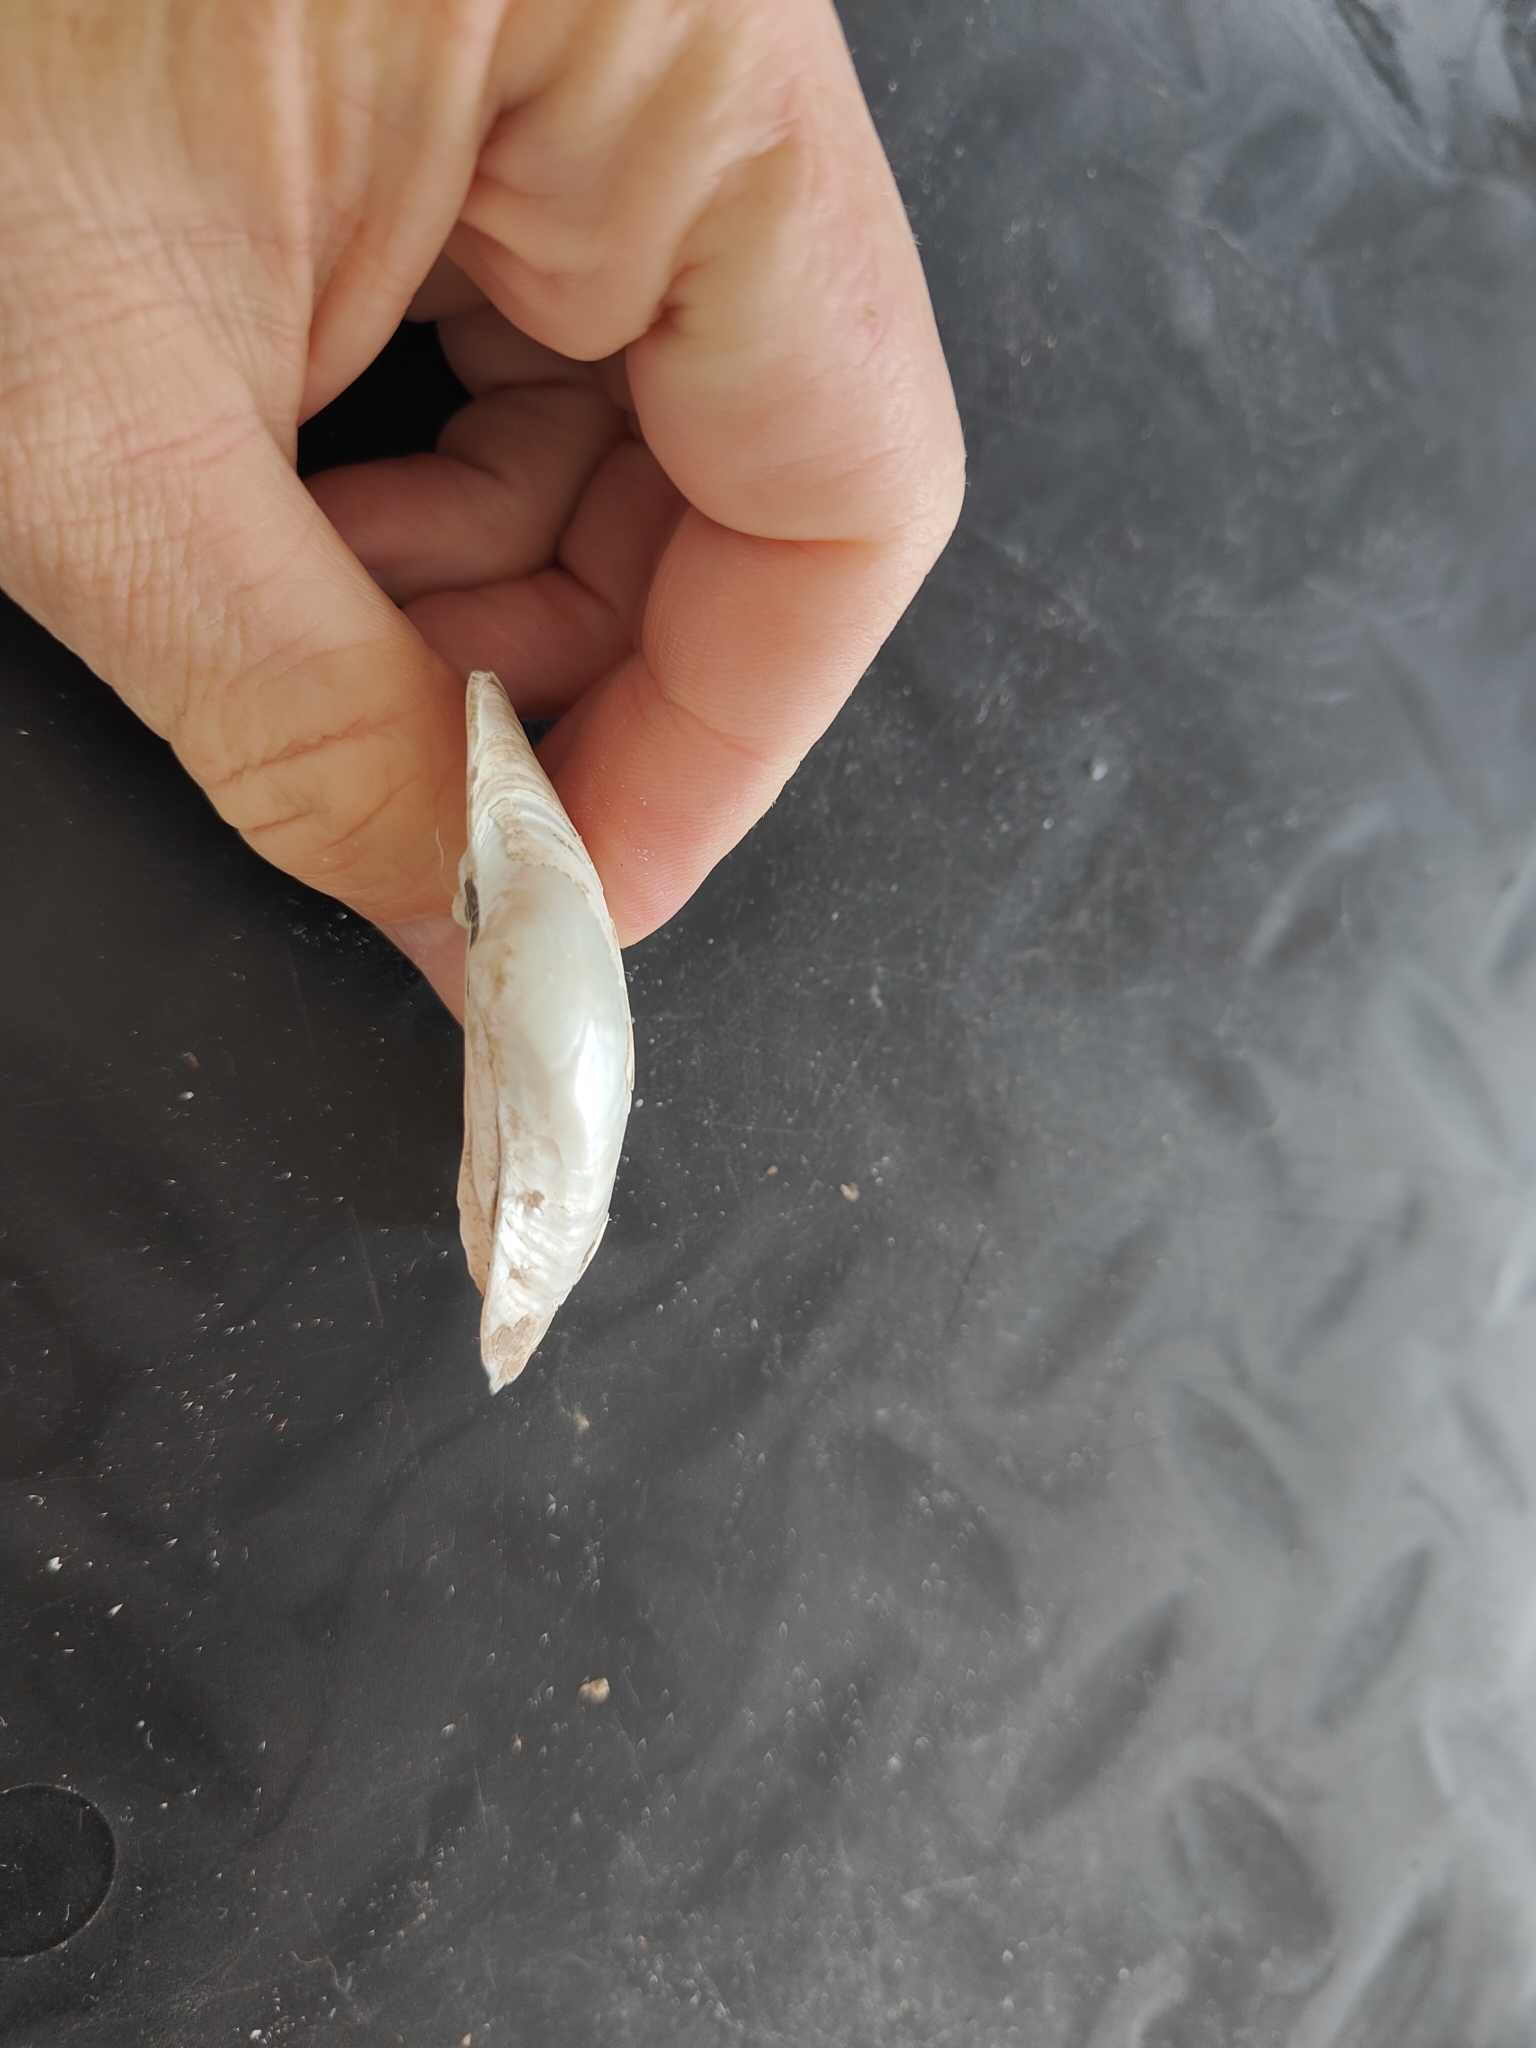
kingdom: Animalia
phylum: Mollusca
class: Bivalvia
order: Unionida
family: Unionidae
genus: Lampsilis
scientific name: Lampsilis cardium
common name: Plain pocketbook
